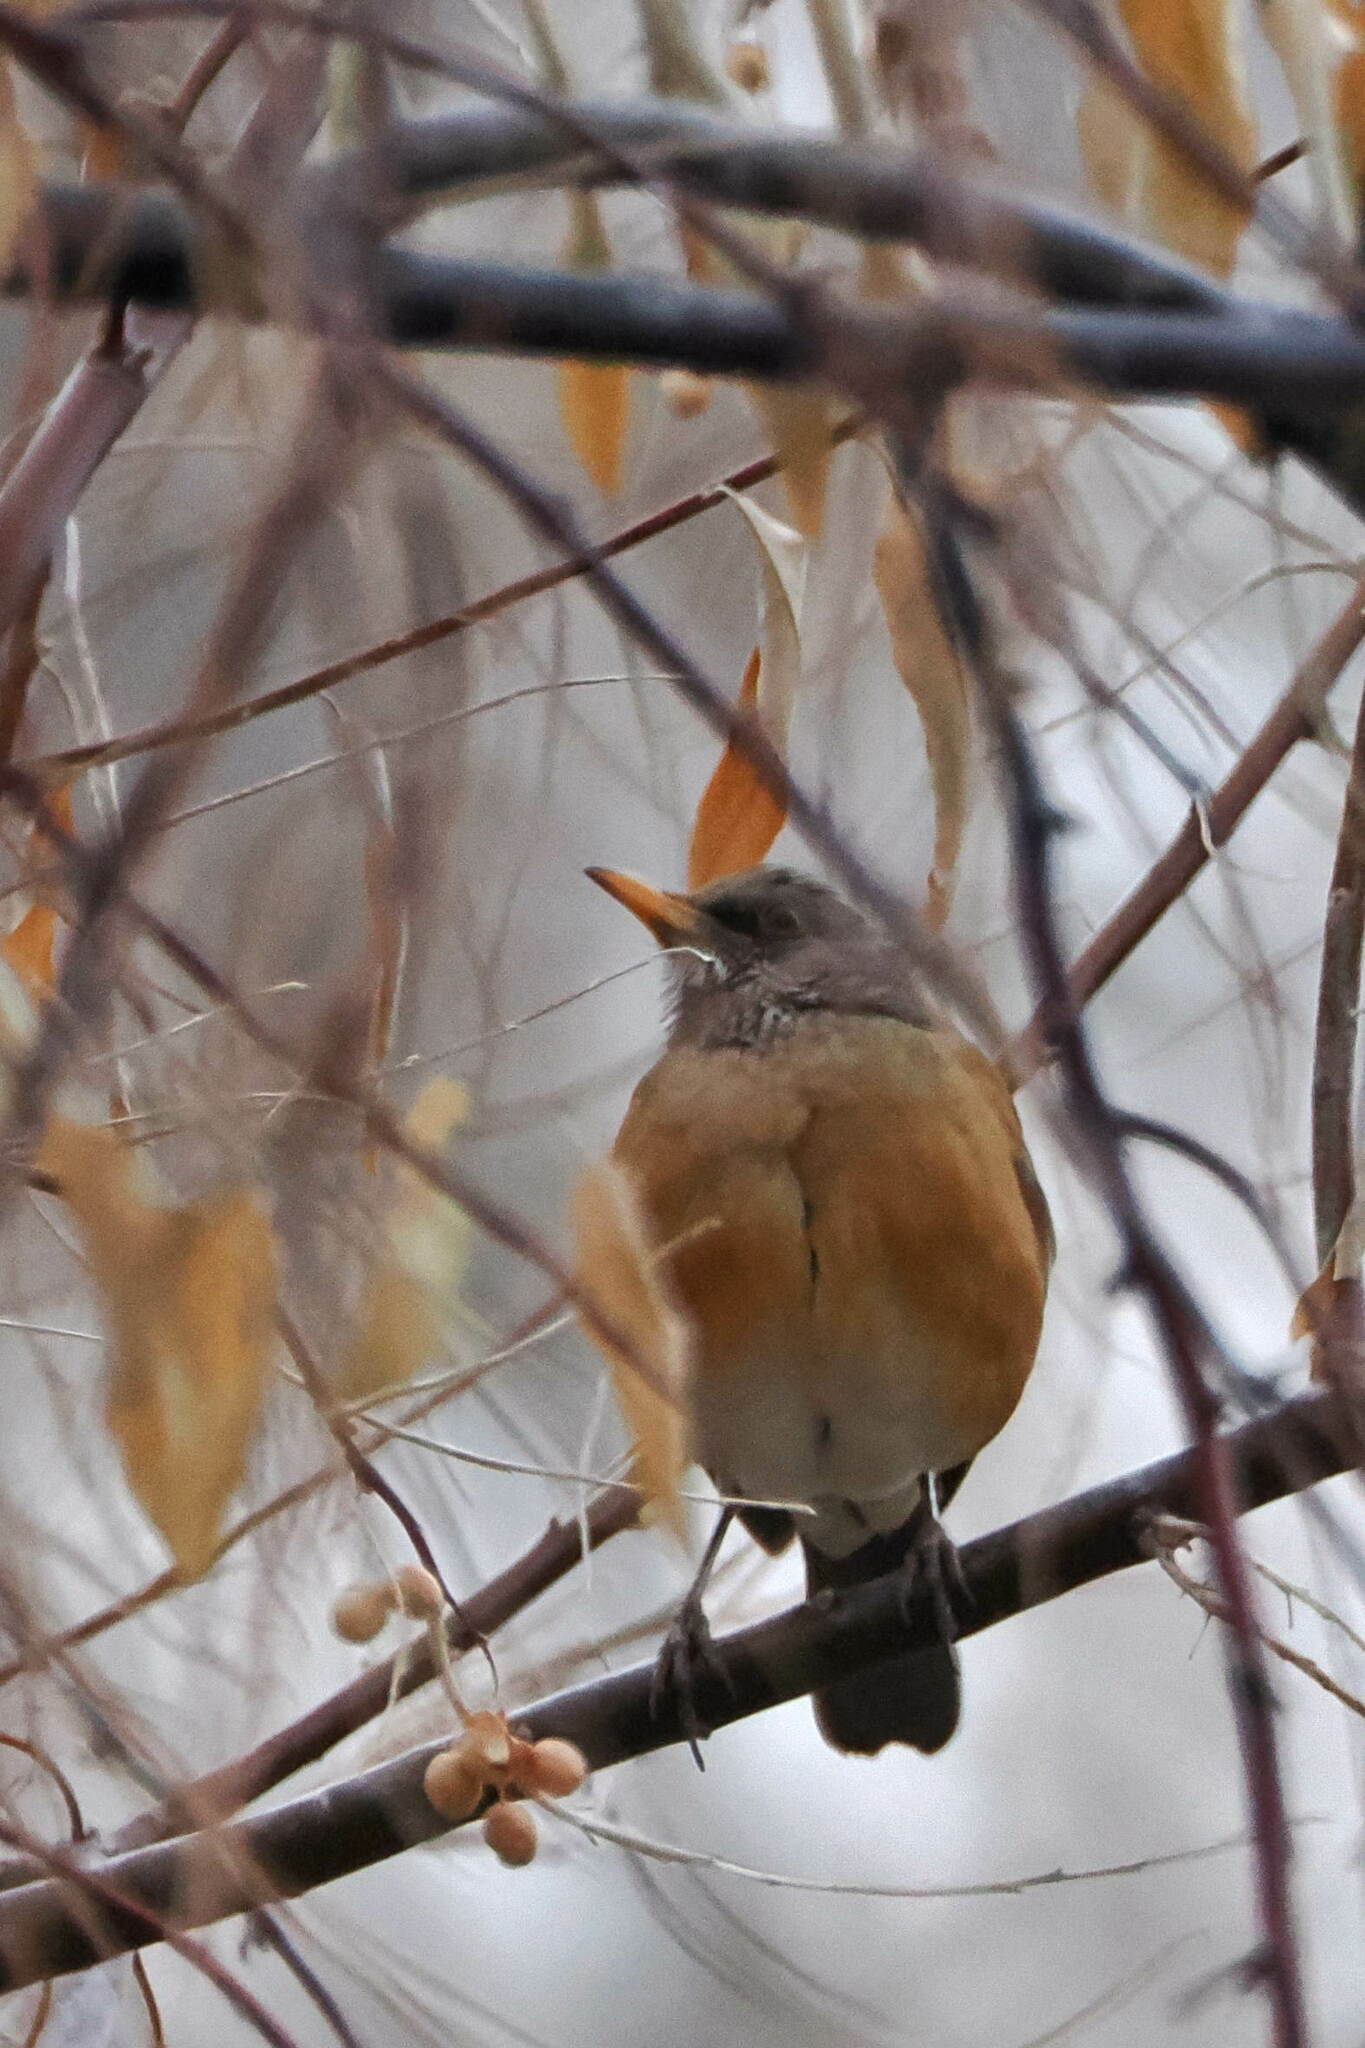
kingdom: Animalia
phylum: Chordata
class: Aves
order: Passeriformes
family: Turdidae
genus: Turdus
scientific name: Turdus rufopalliatus
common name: Rufous-backed robin
